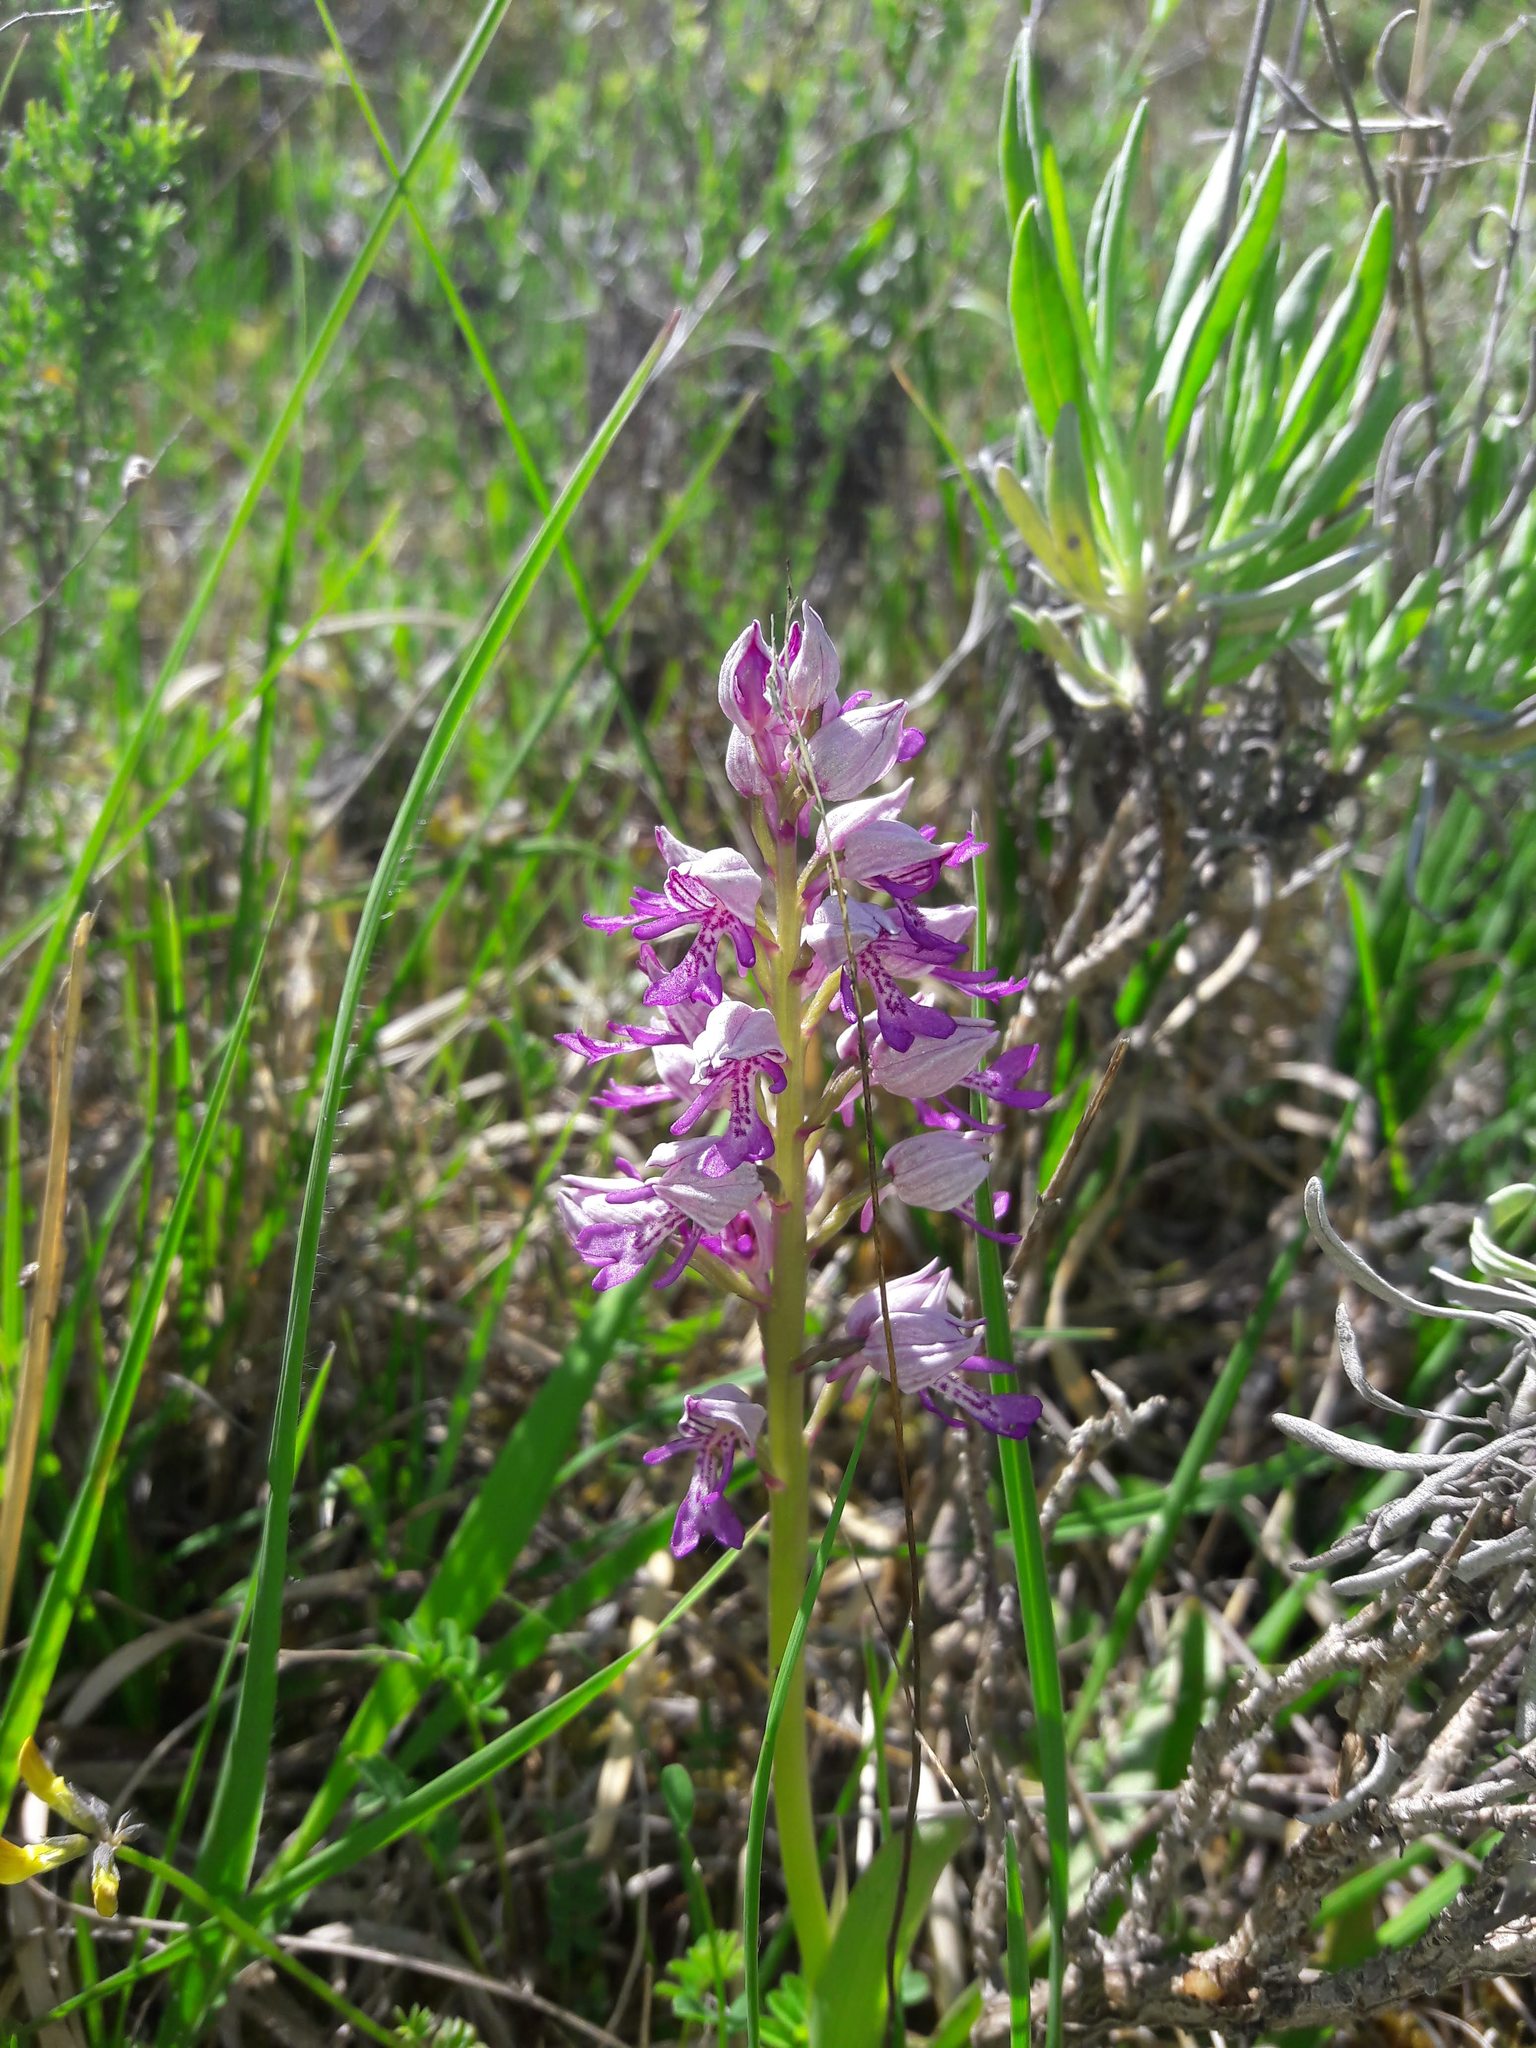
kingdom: Plantae
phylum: Tracheophyta
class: Liliopsida
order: Asparagales
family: Orchidaceae
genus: Orchis
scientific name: Orchis militaris
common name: Military orchid
